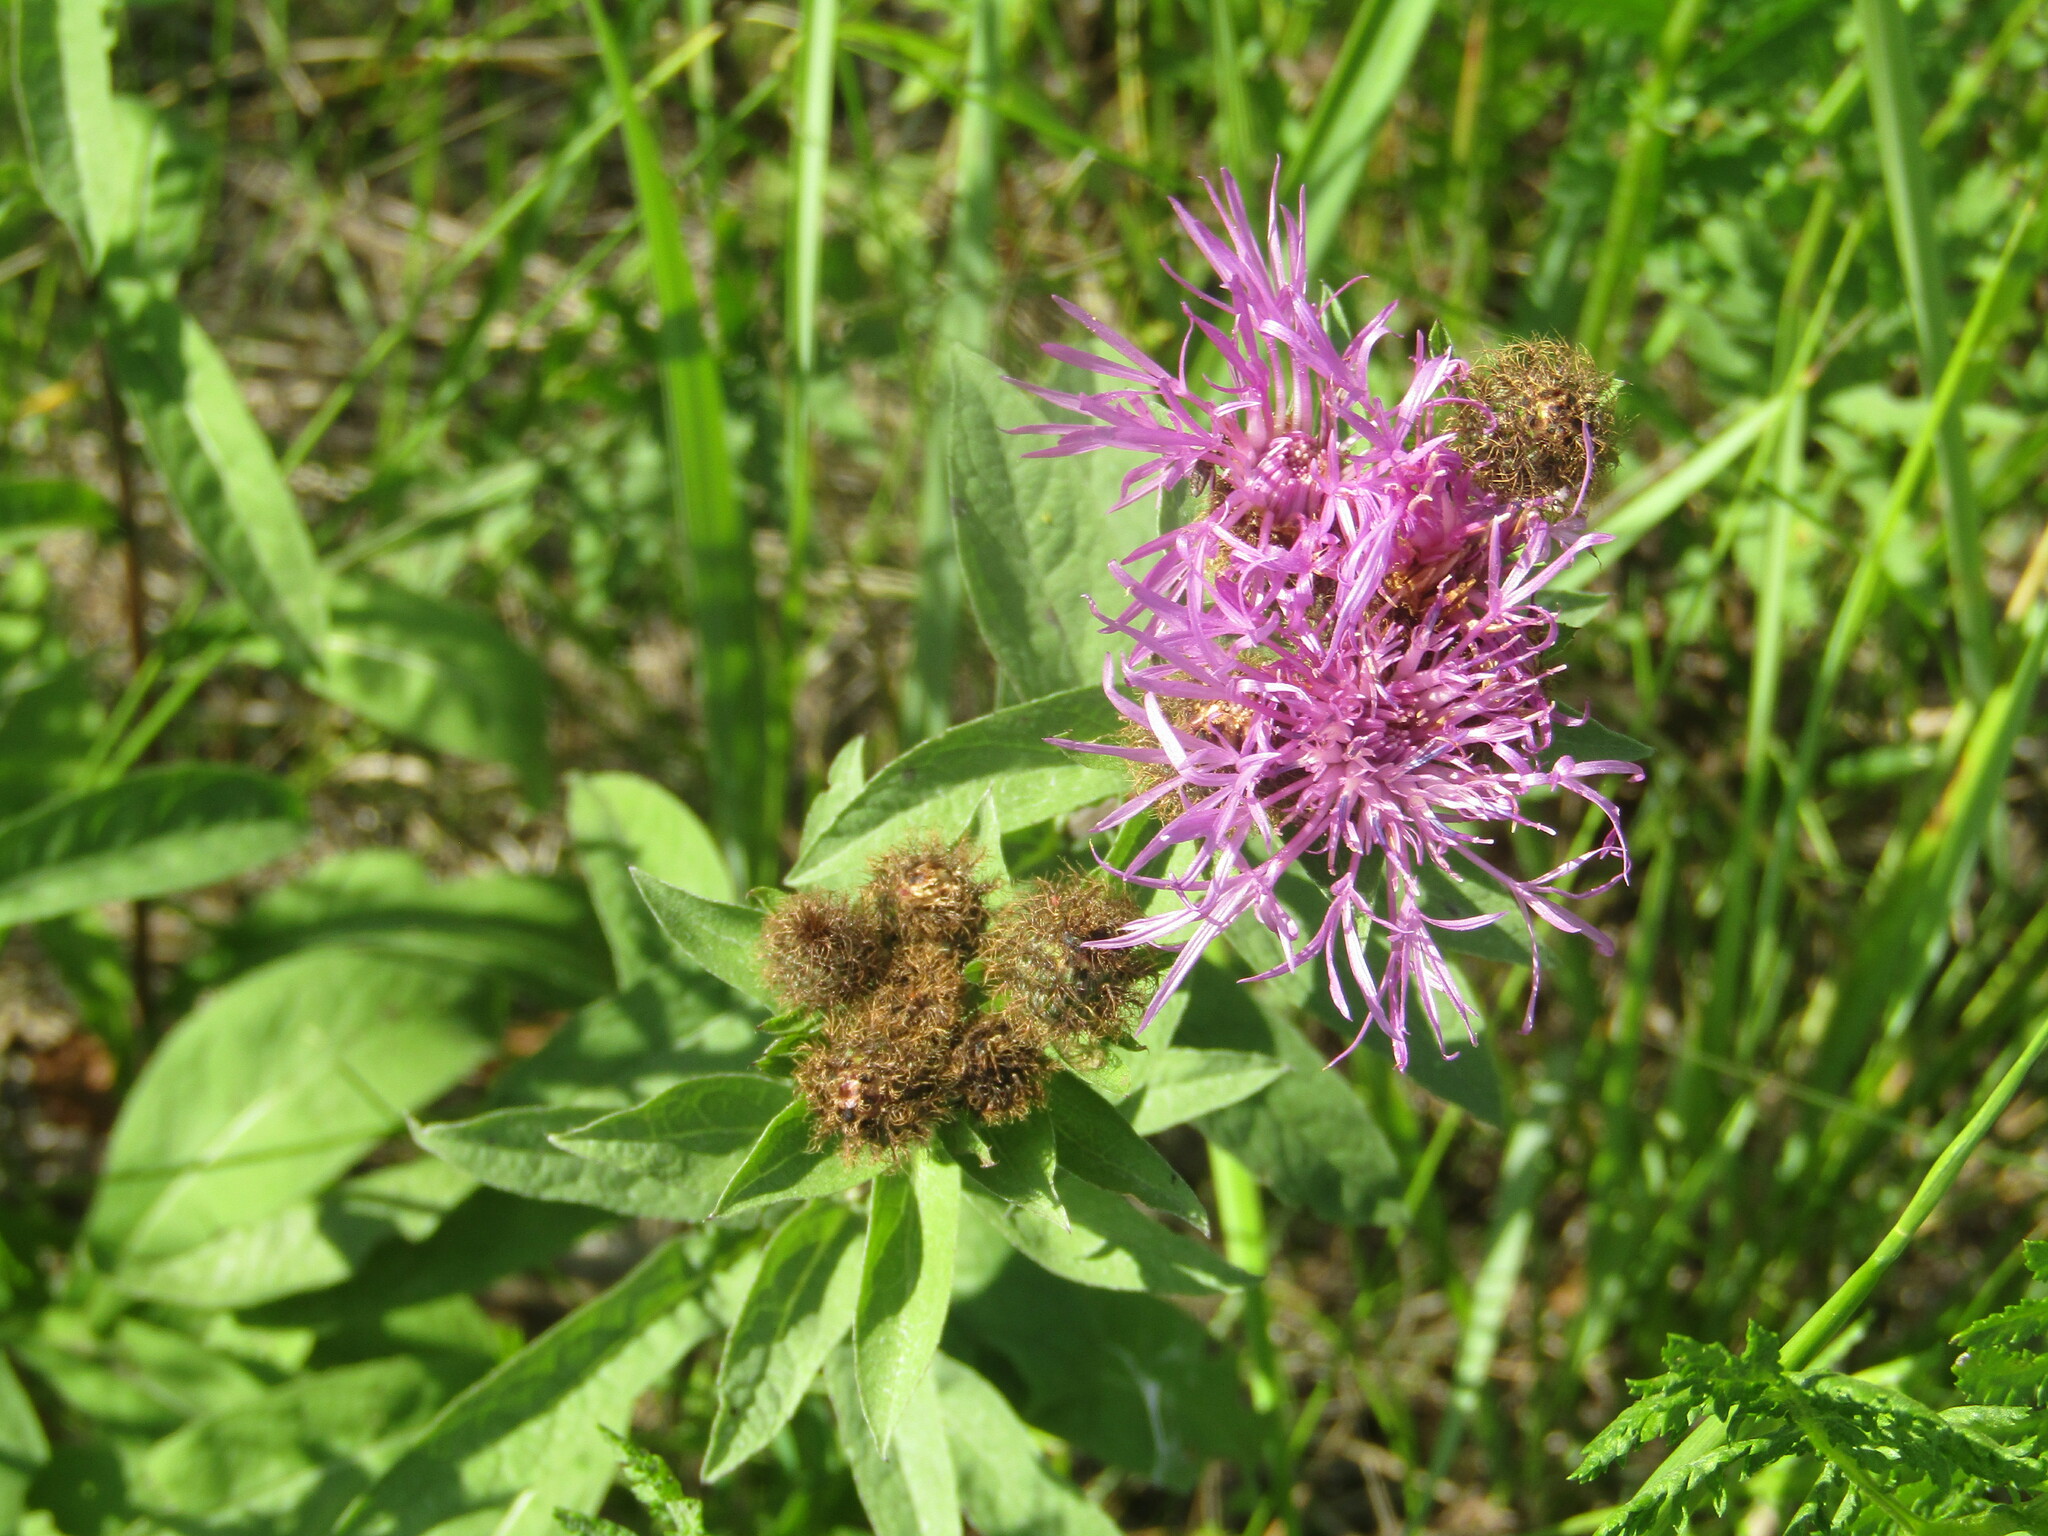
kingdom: Plantae
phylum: Tracheophyta
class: Magnoliopsida
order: Asterales
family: Asteraceae
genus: Centaurea
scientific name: Centaurea phrygia
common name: Wig knapweed
